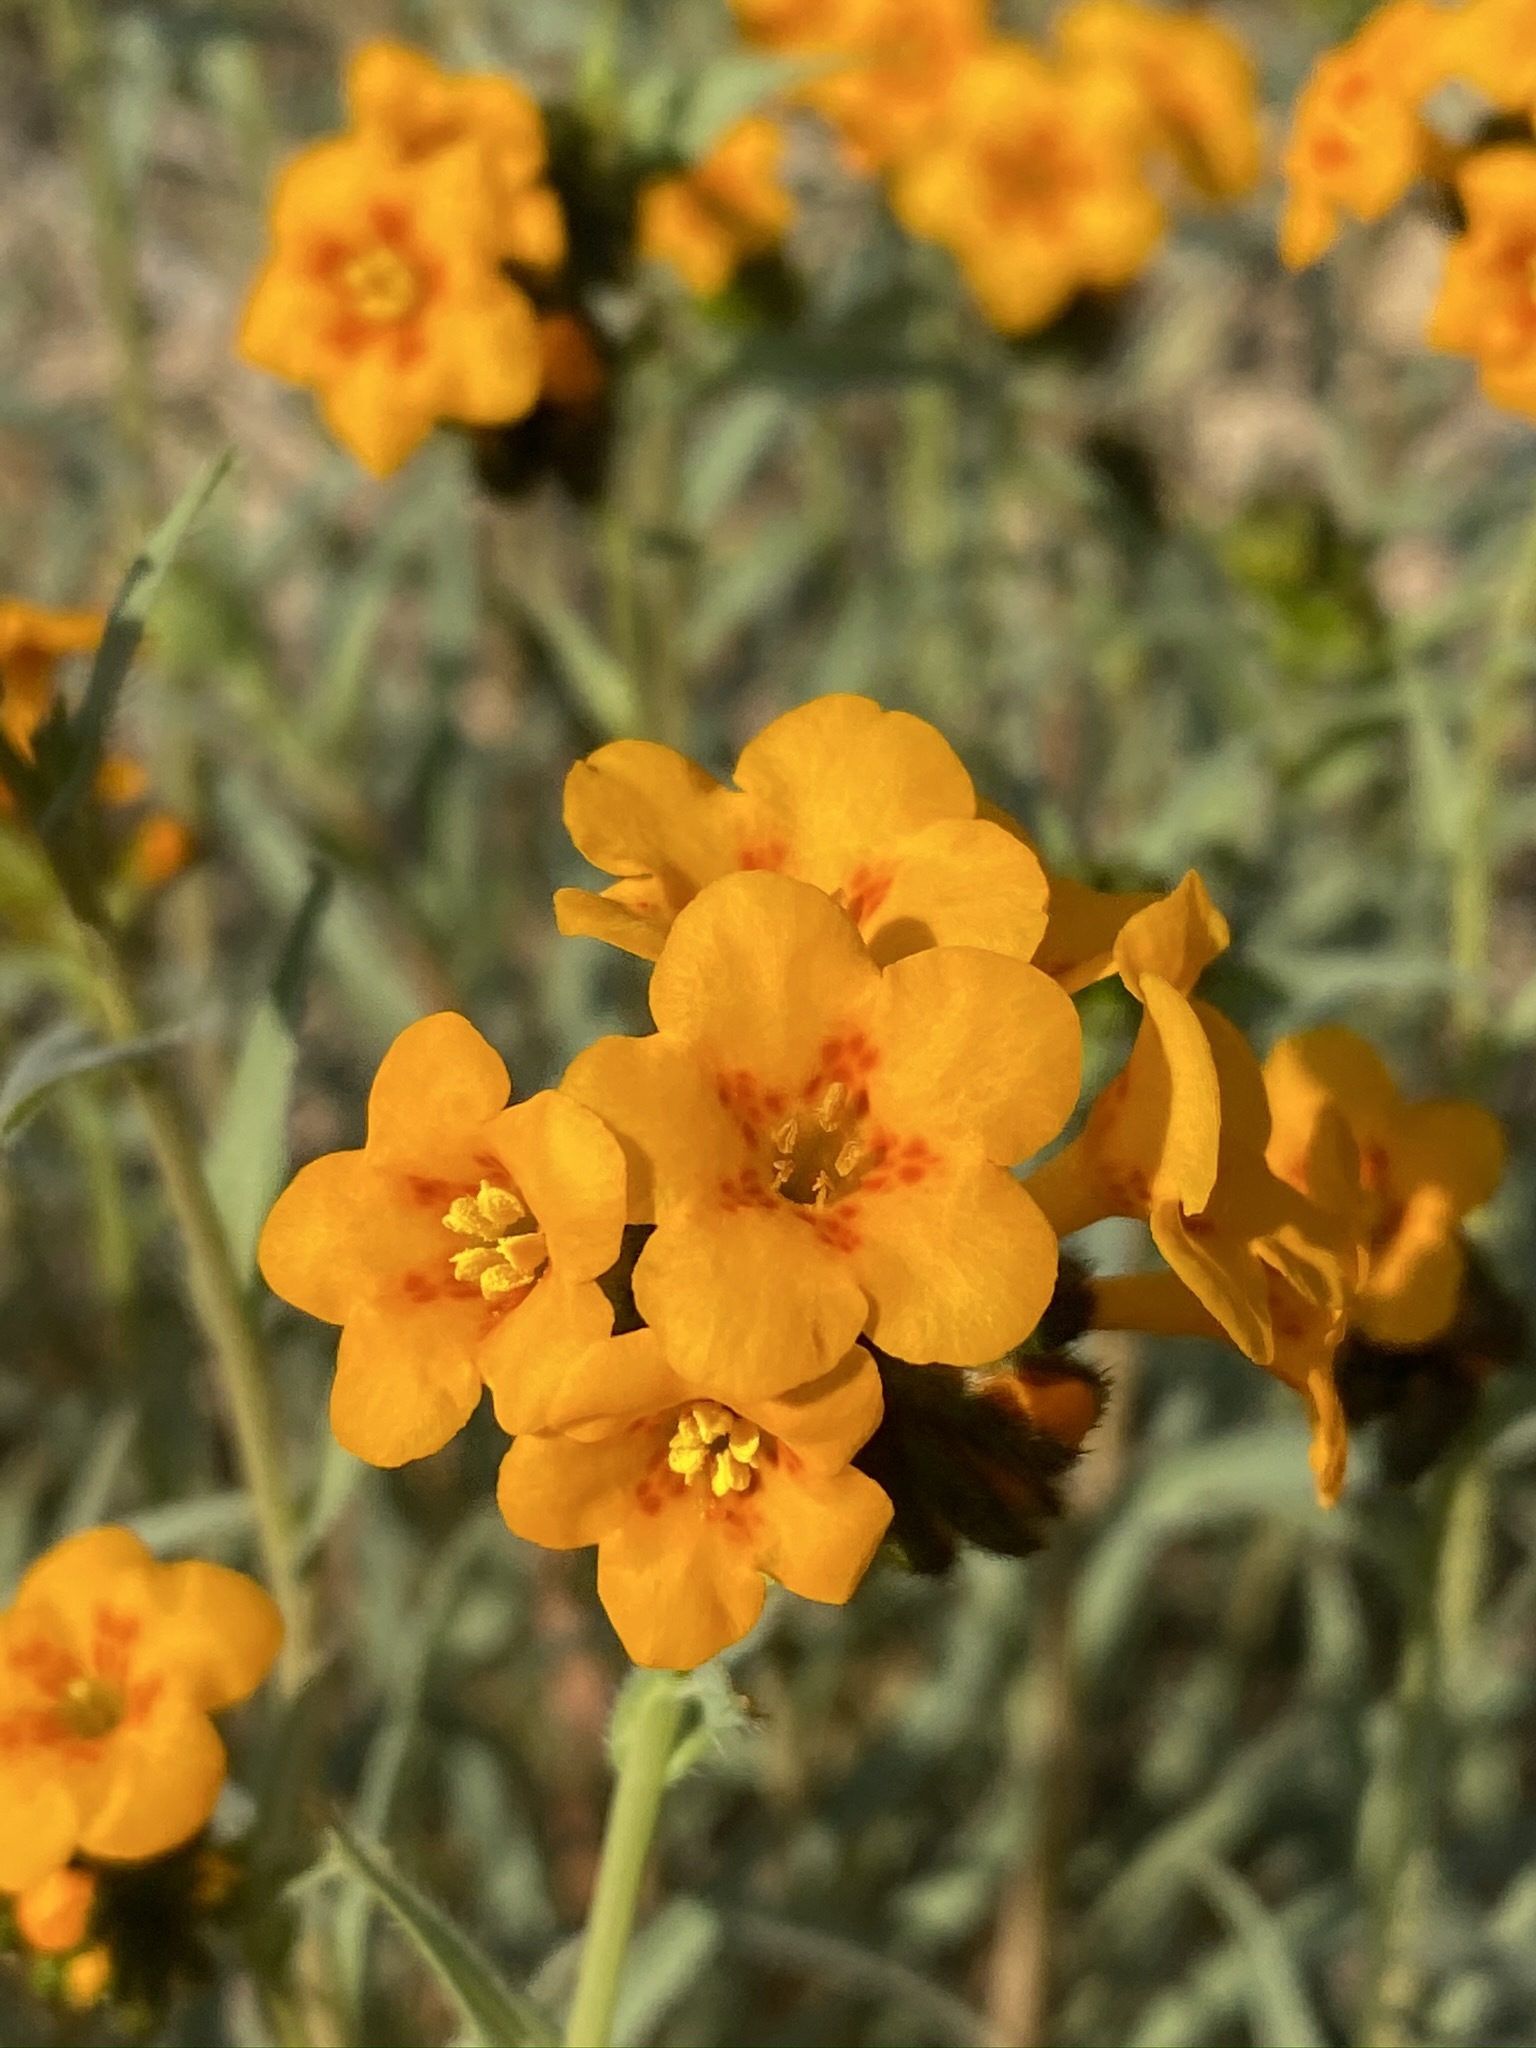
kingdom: Plantae
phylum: Tracheophyta
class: Magnoliopsida
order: Boraginales
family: Boraginaceae
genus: Amsinckia
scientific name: Amsinckia vernicosa
